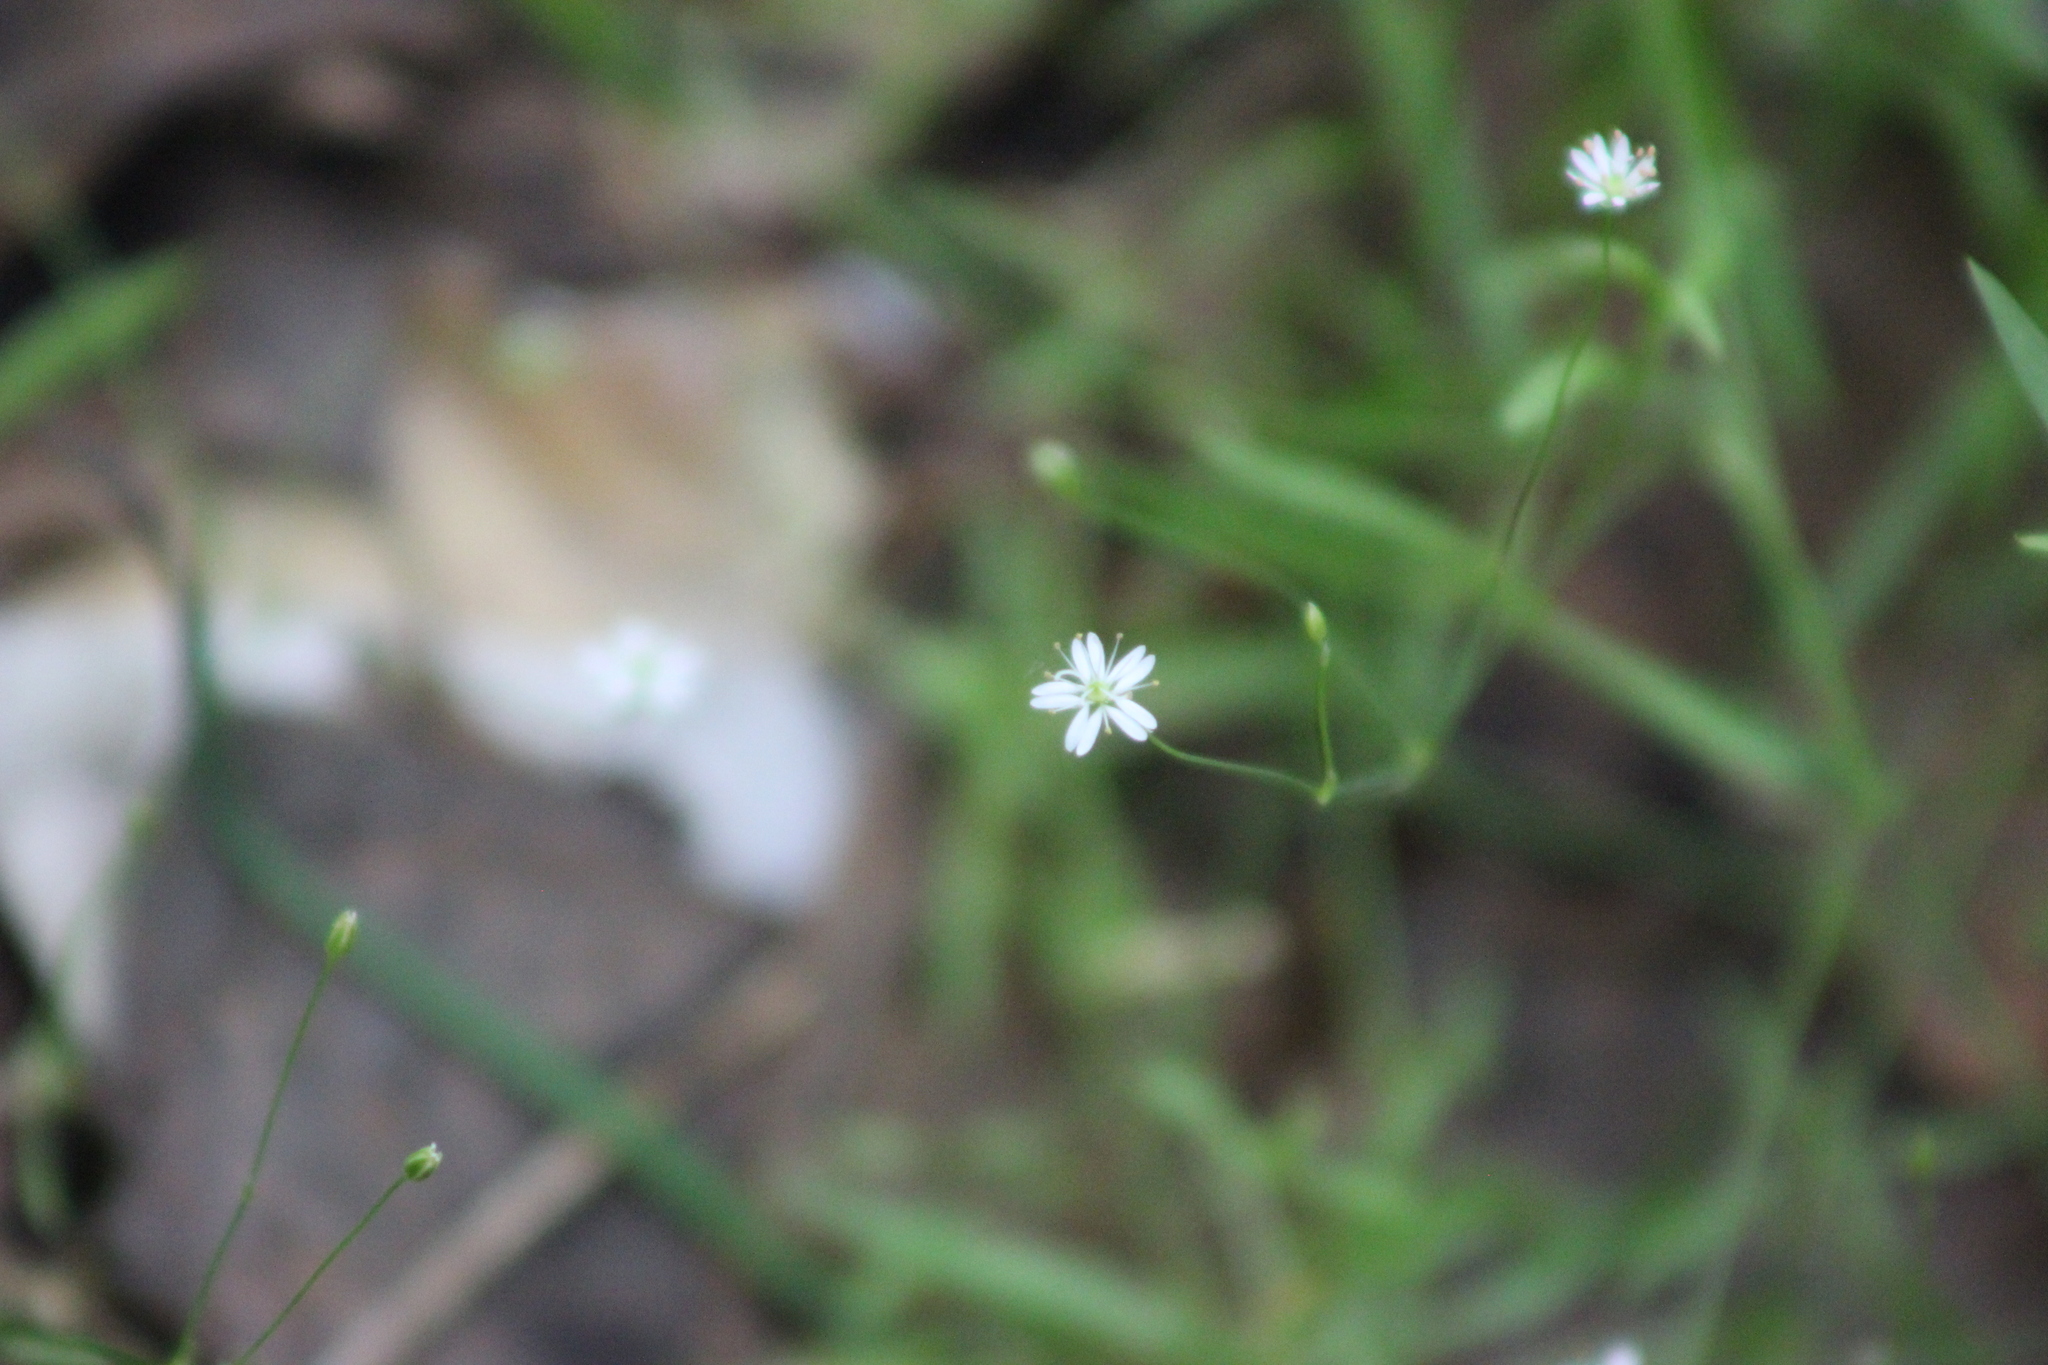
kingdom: Plantae
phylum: Tracheophyta
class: Magnoliopsida
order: Caryophyllales
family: Caryophyllaceae
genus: Stellaria
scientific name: Stellaria longifolia
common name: Long-leaved chickweed
